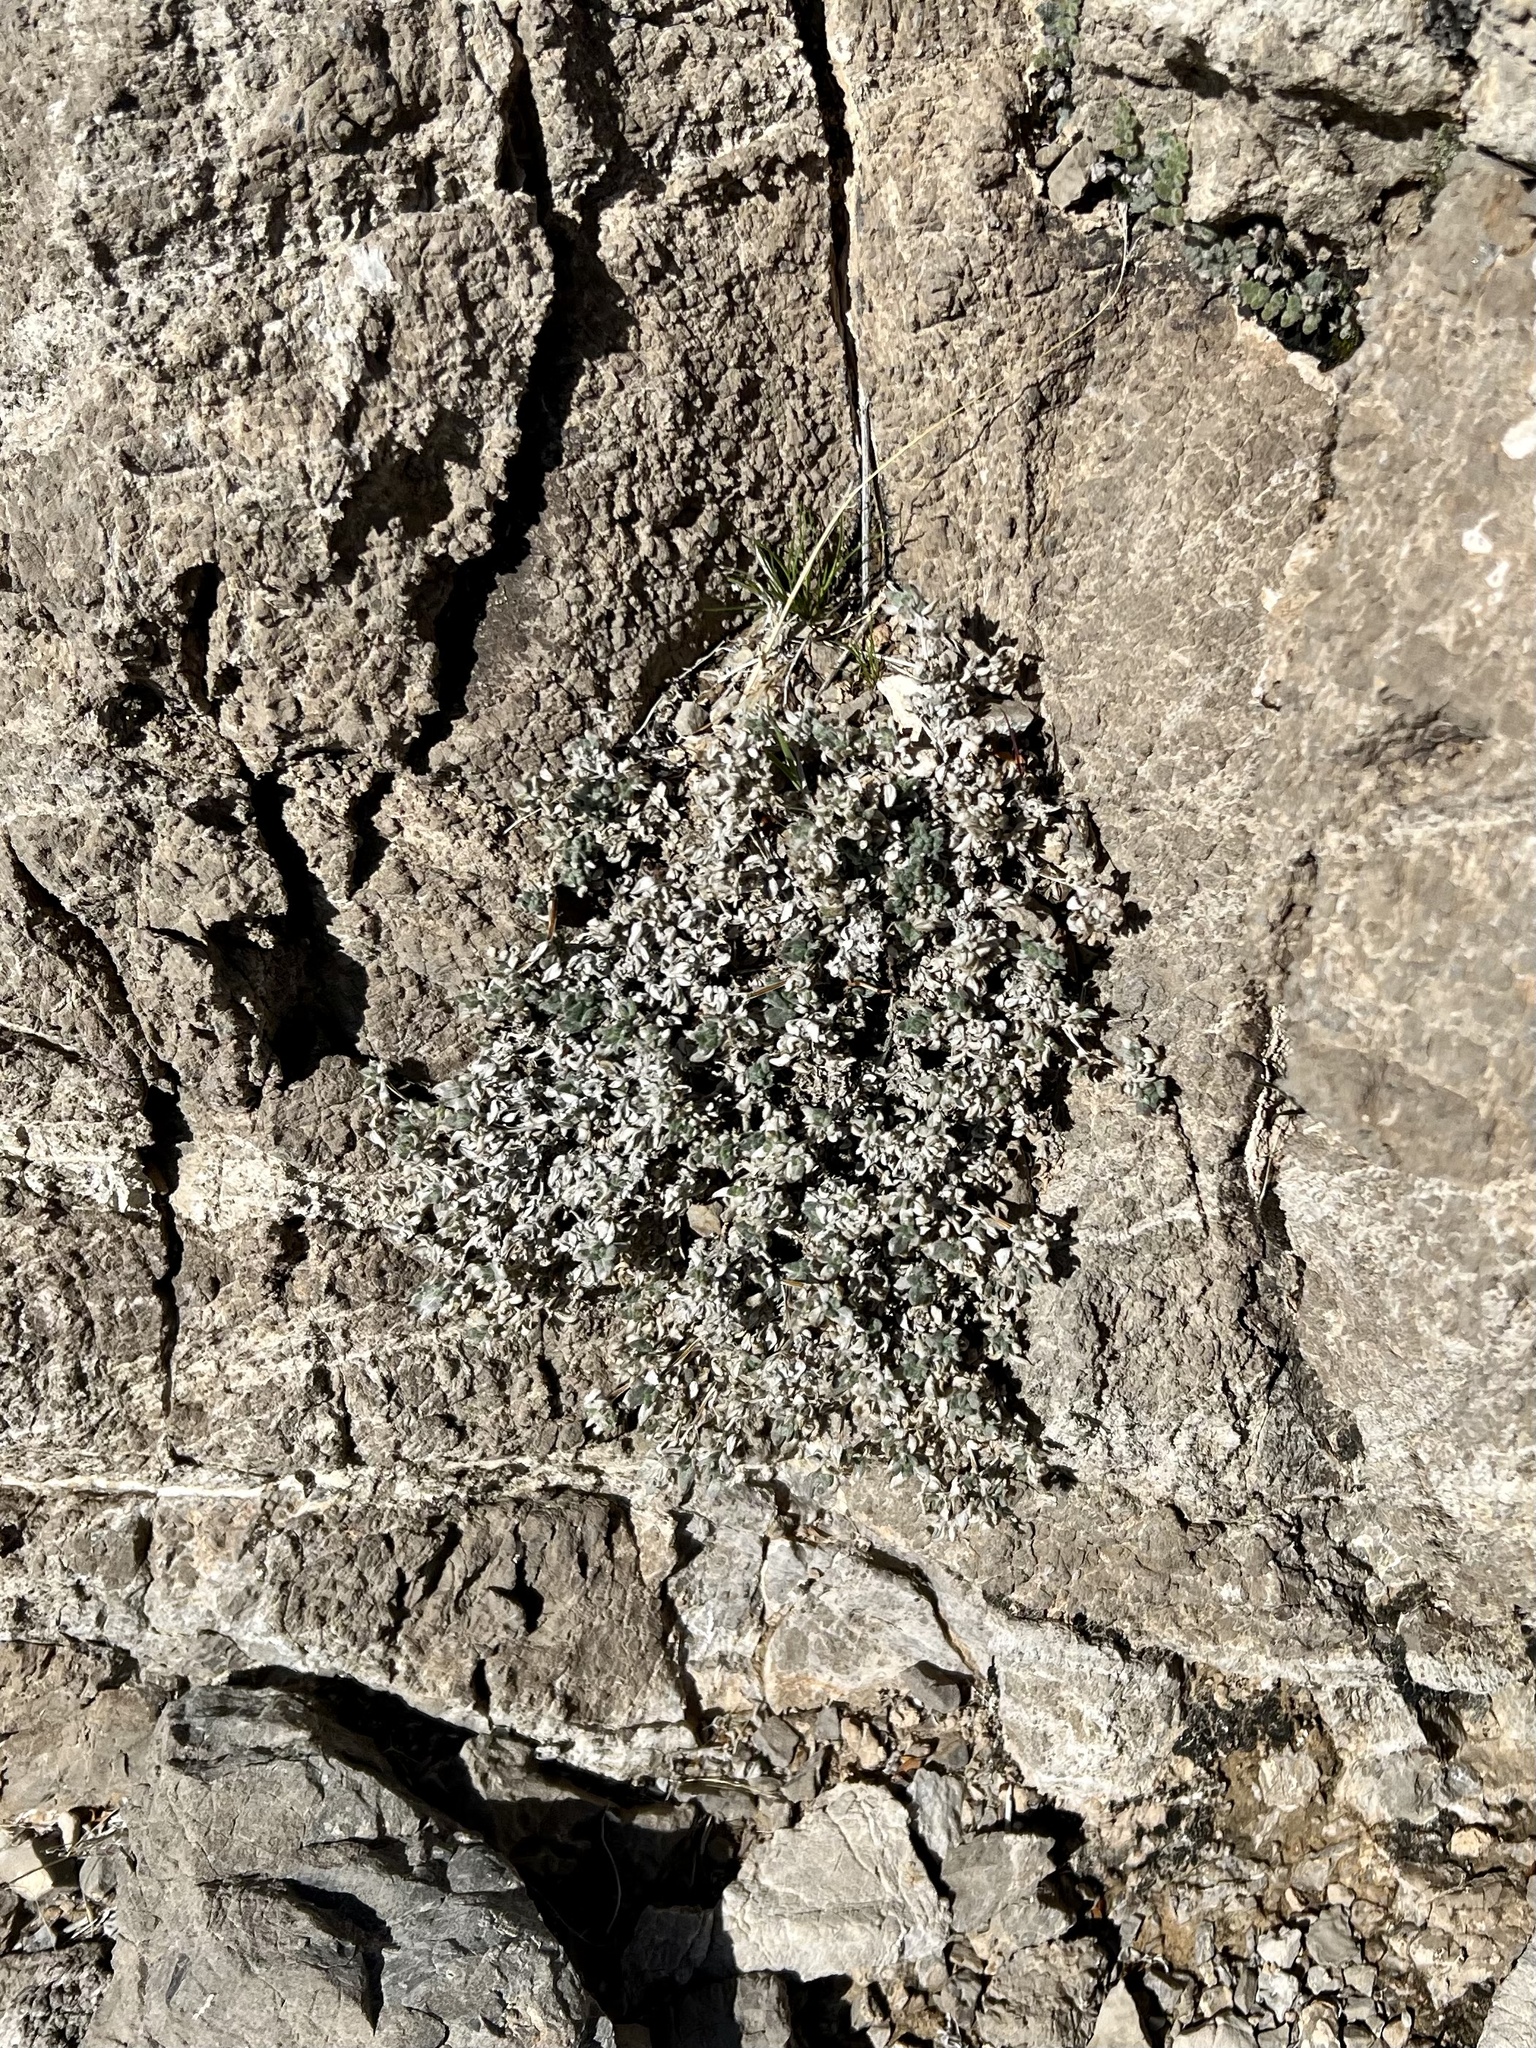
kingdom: Plantae
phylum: Tracheophyta
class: Magnoliopsida
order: Boraginales
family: Ehretiaceae
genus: Tiquilia
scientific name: Tiquilia canescens
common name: Hairy tiquilia
